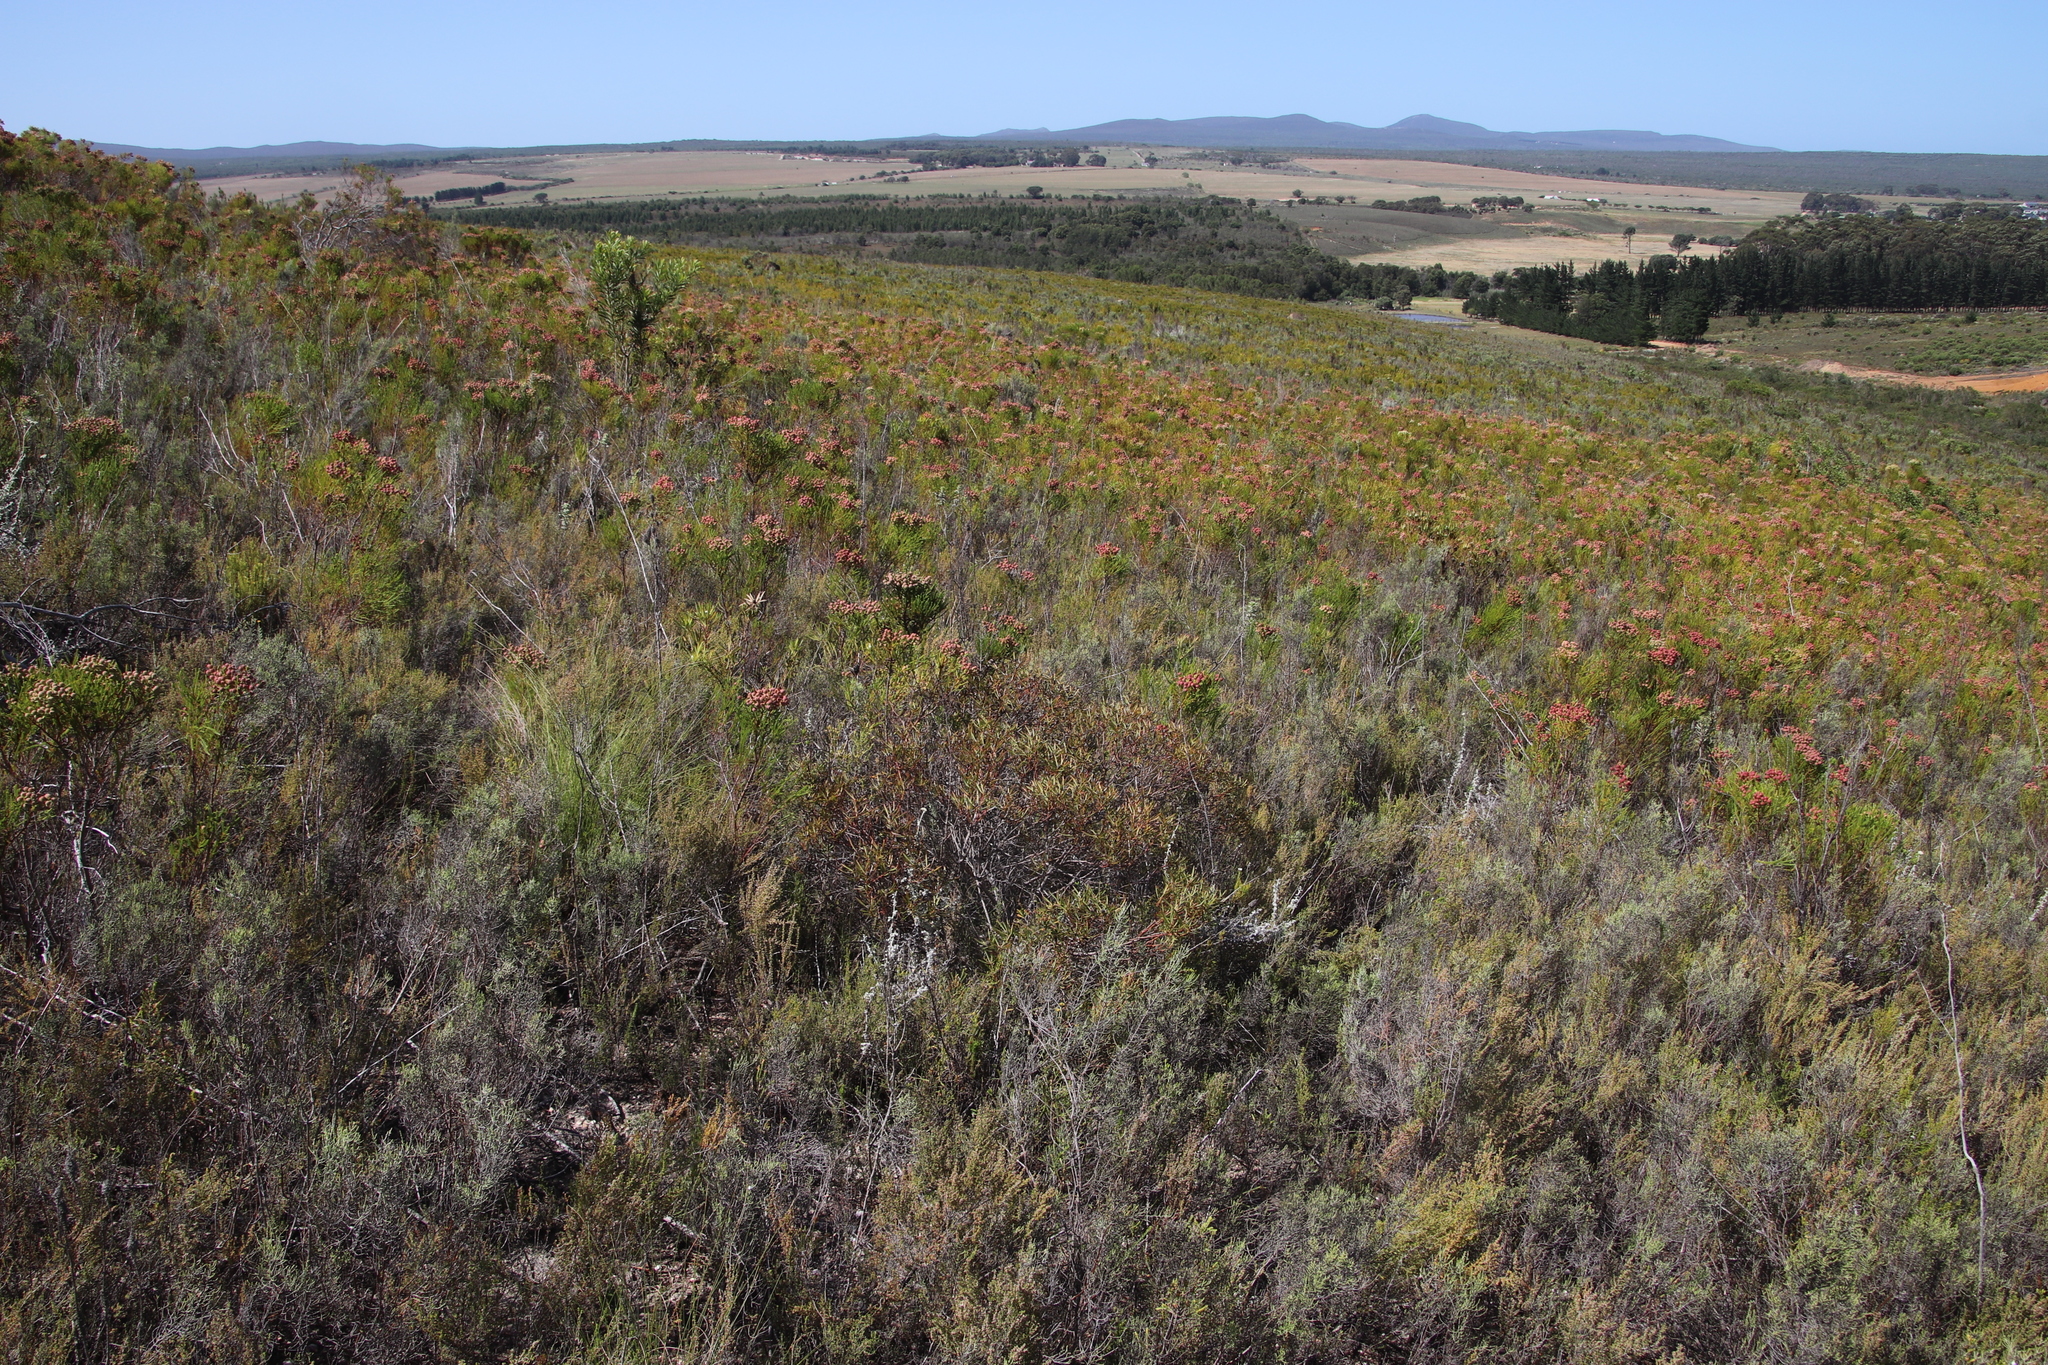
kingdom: Plantae
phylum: Tracheophyta
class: Magnoliopsida
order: Proteales
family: Proteaceae
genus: Leucadendron
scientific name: Leucadendron salignum
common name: Common sunshine conebush
